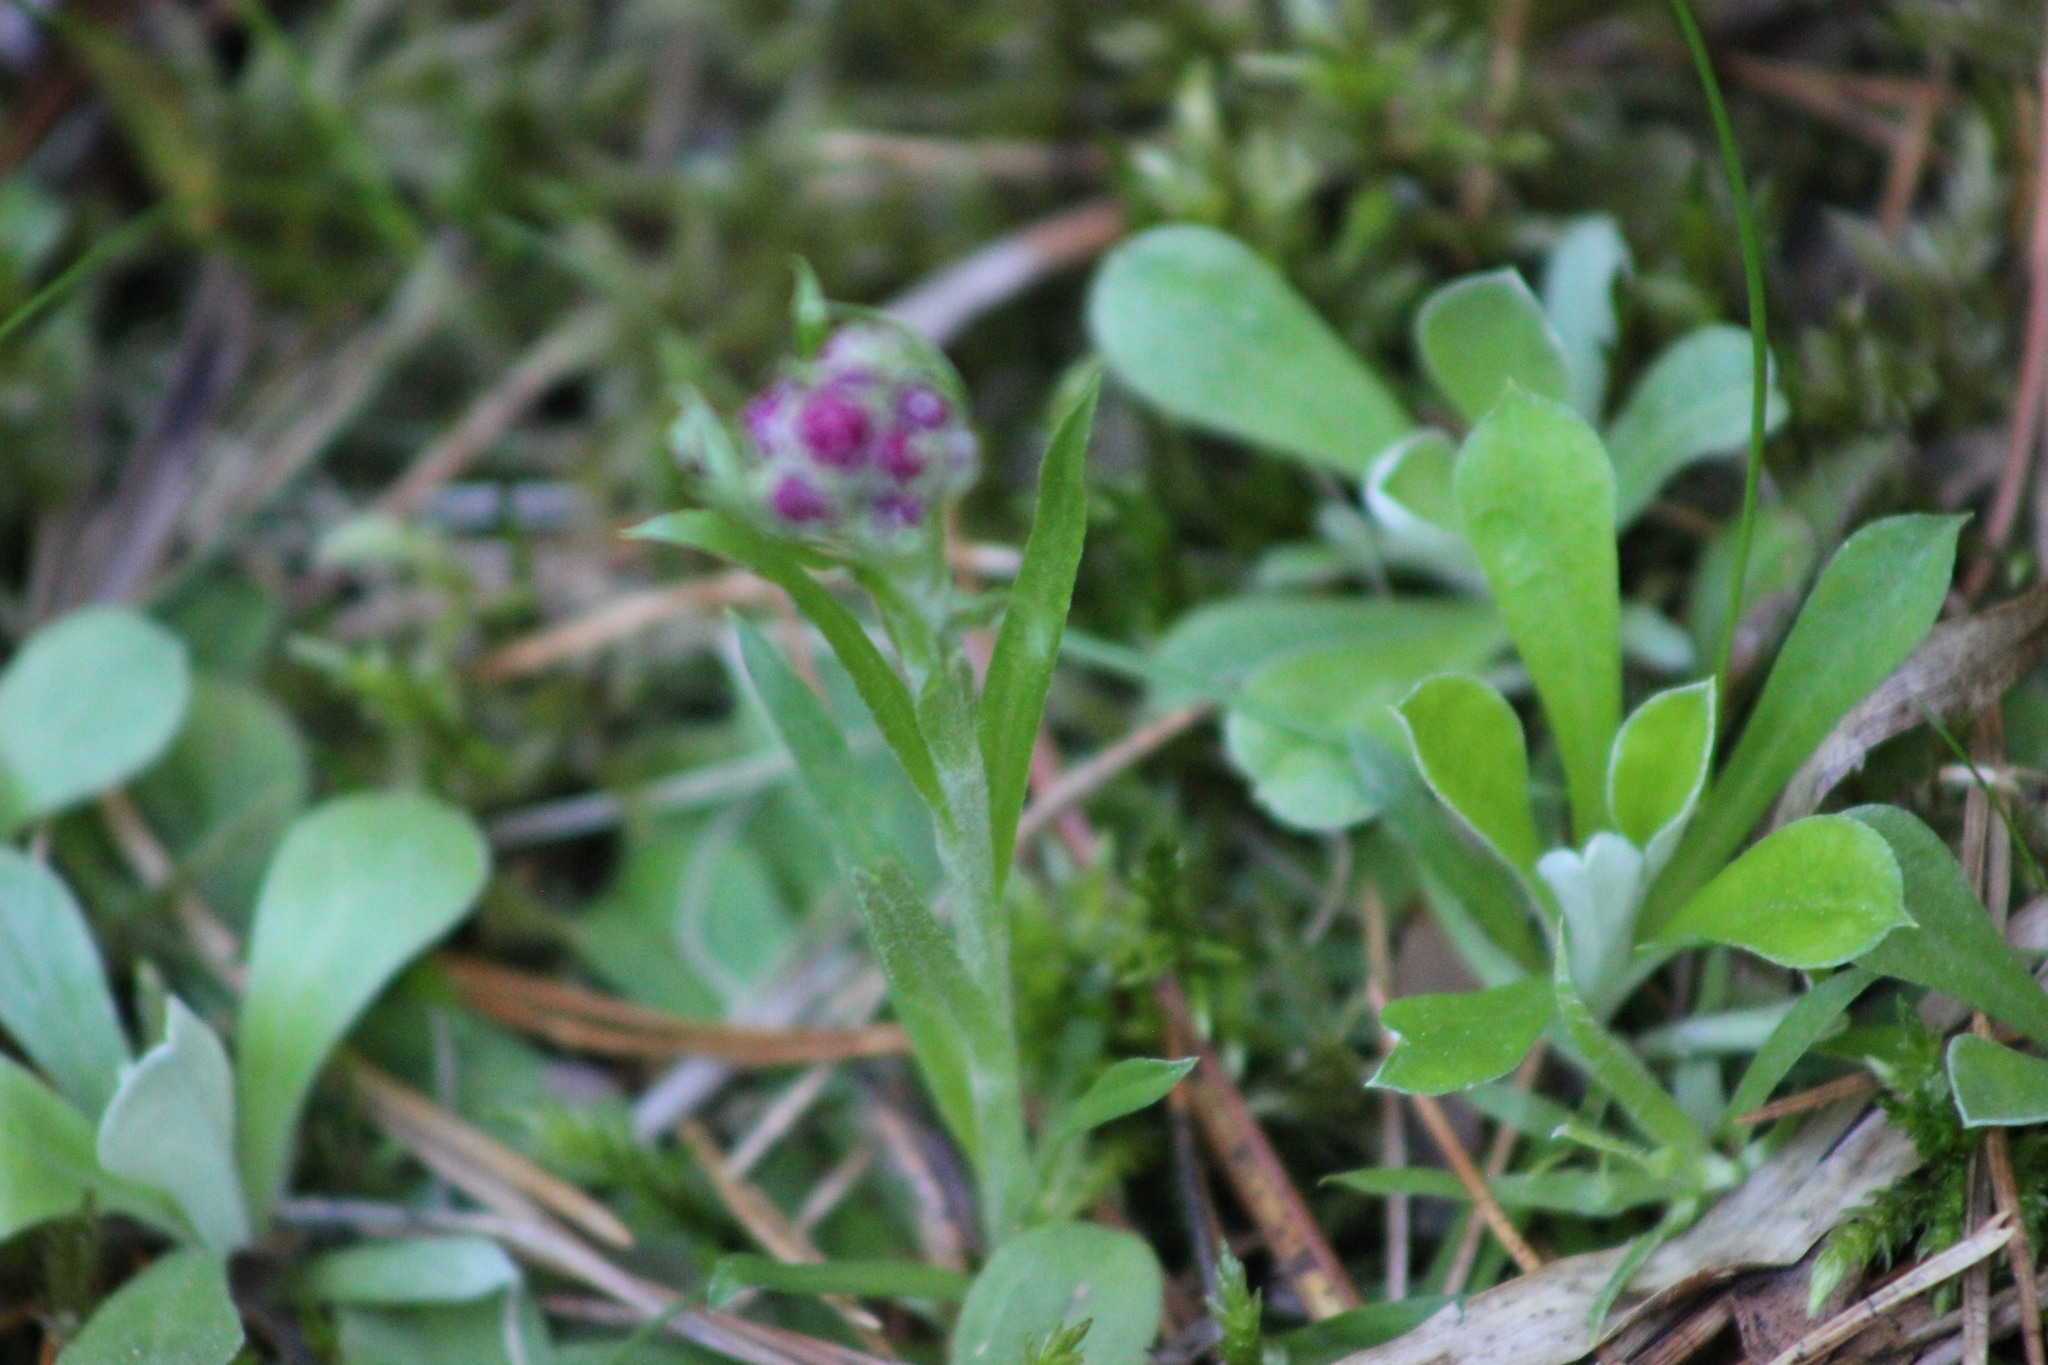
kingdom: Plantae
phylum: Tracheophyta
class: Magnoliopsida
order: Asterales
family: Asteraceae
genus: Antennaria
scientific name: Antennaria dioica
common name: Mountain everlasting
